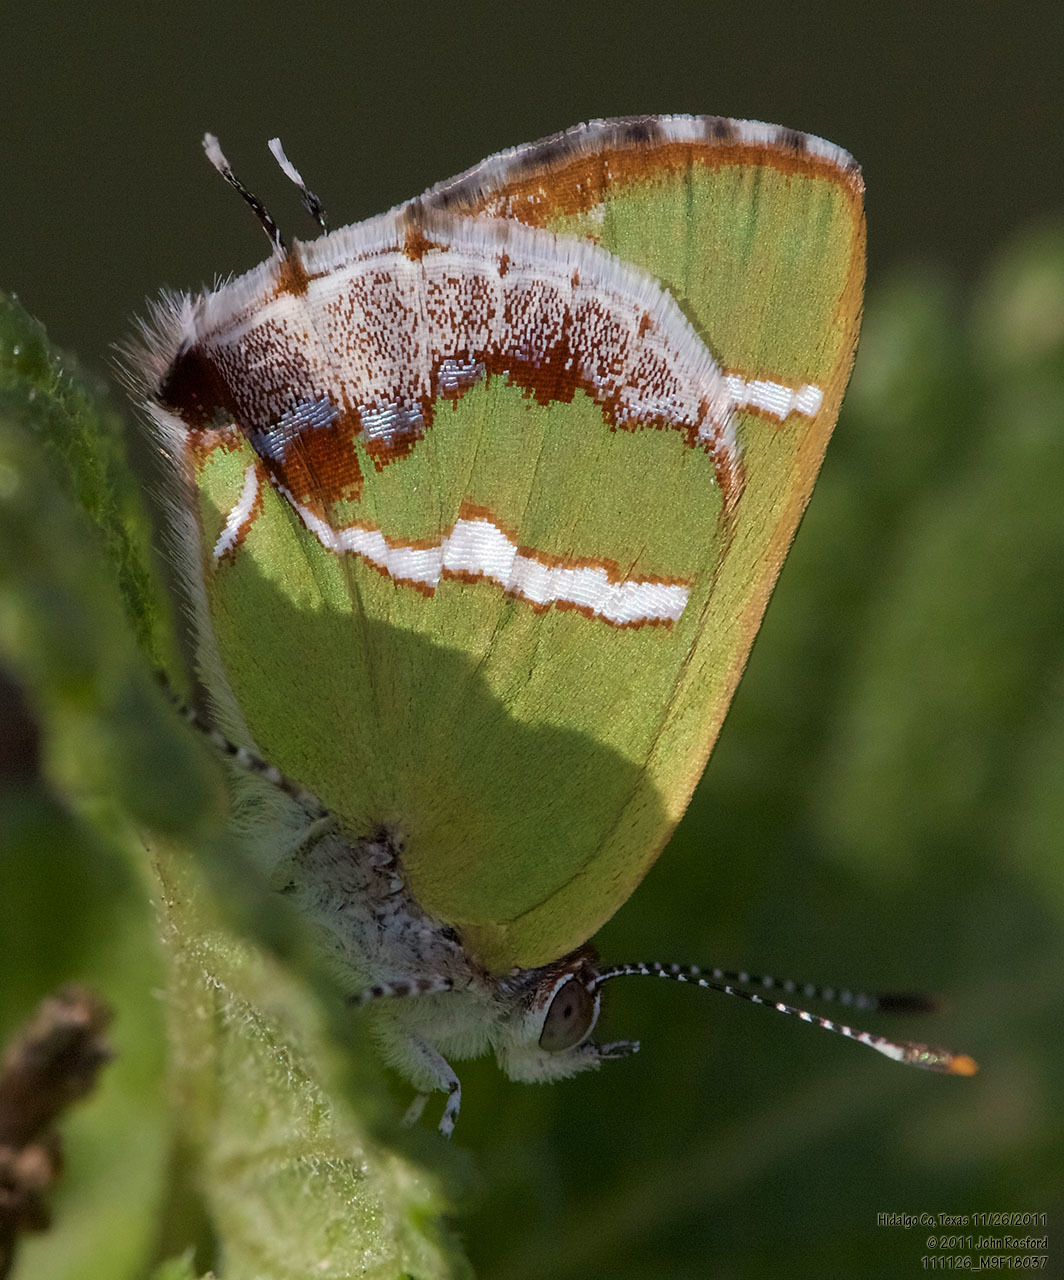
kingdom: Animalia
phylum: Arthropoda
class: Insecta
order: Lepidoptera
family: Lycaenidae
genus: Chlorostrymon
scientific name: Chlorostrymon simaethis
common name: Silver-banded hairstreak
